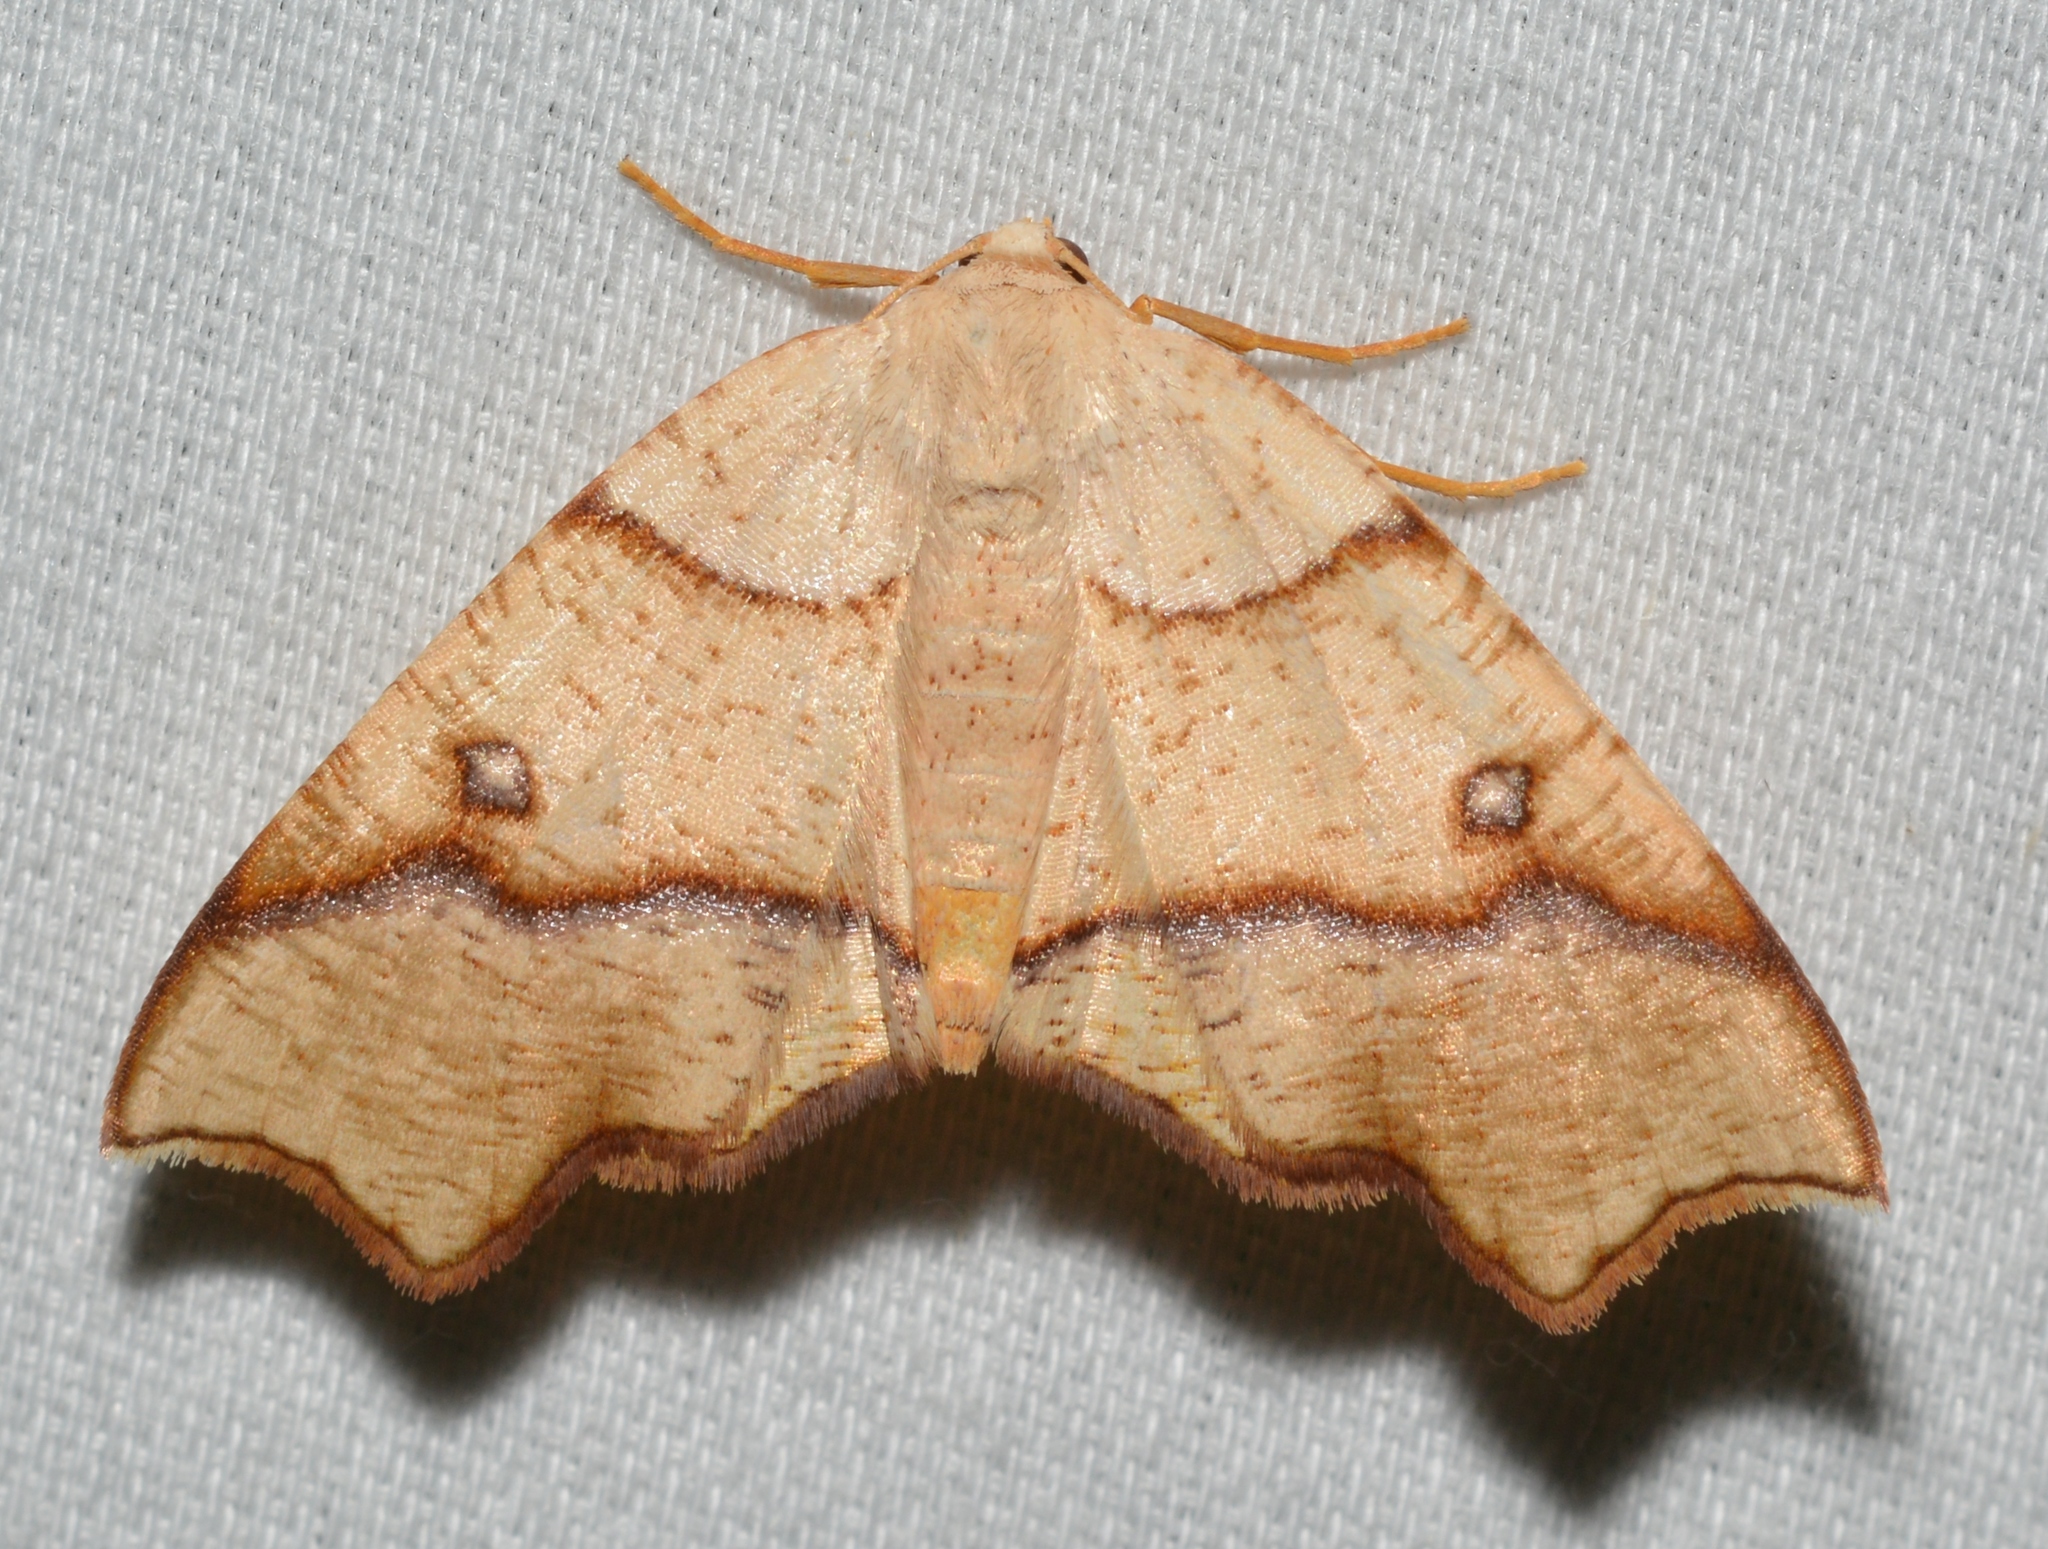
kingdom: Animalia
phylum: Arthropoda
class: Insecta
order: Lepidoptera
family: Geometridae
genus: Plagodis
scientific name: Plagodis alcoolaria
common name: Hollow-spotted plagodis
